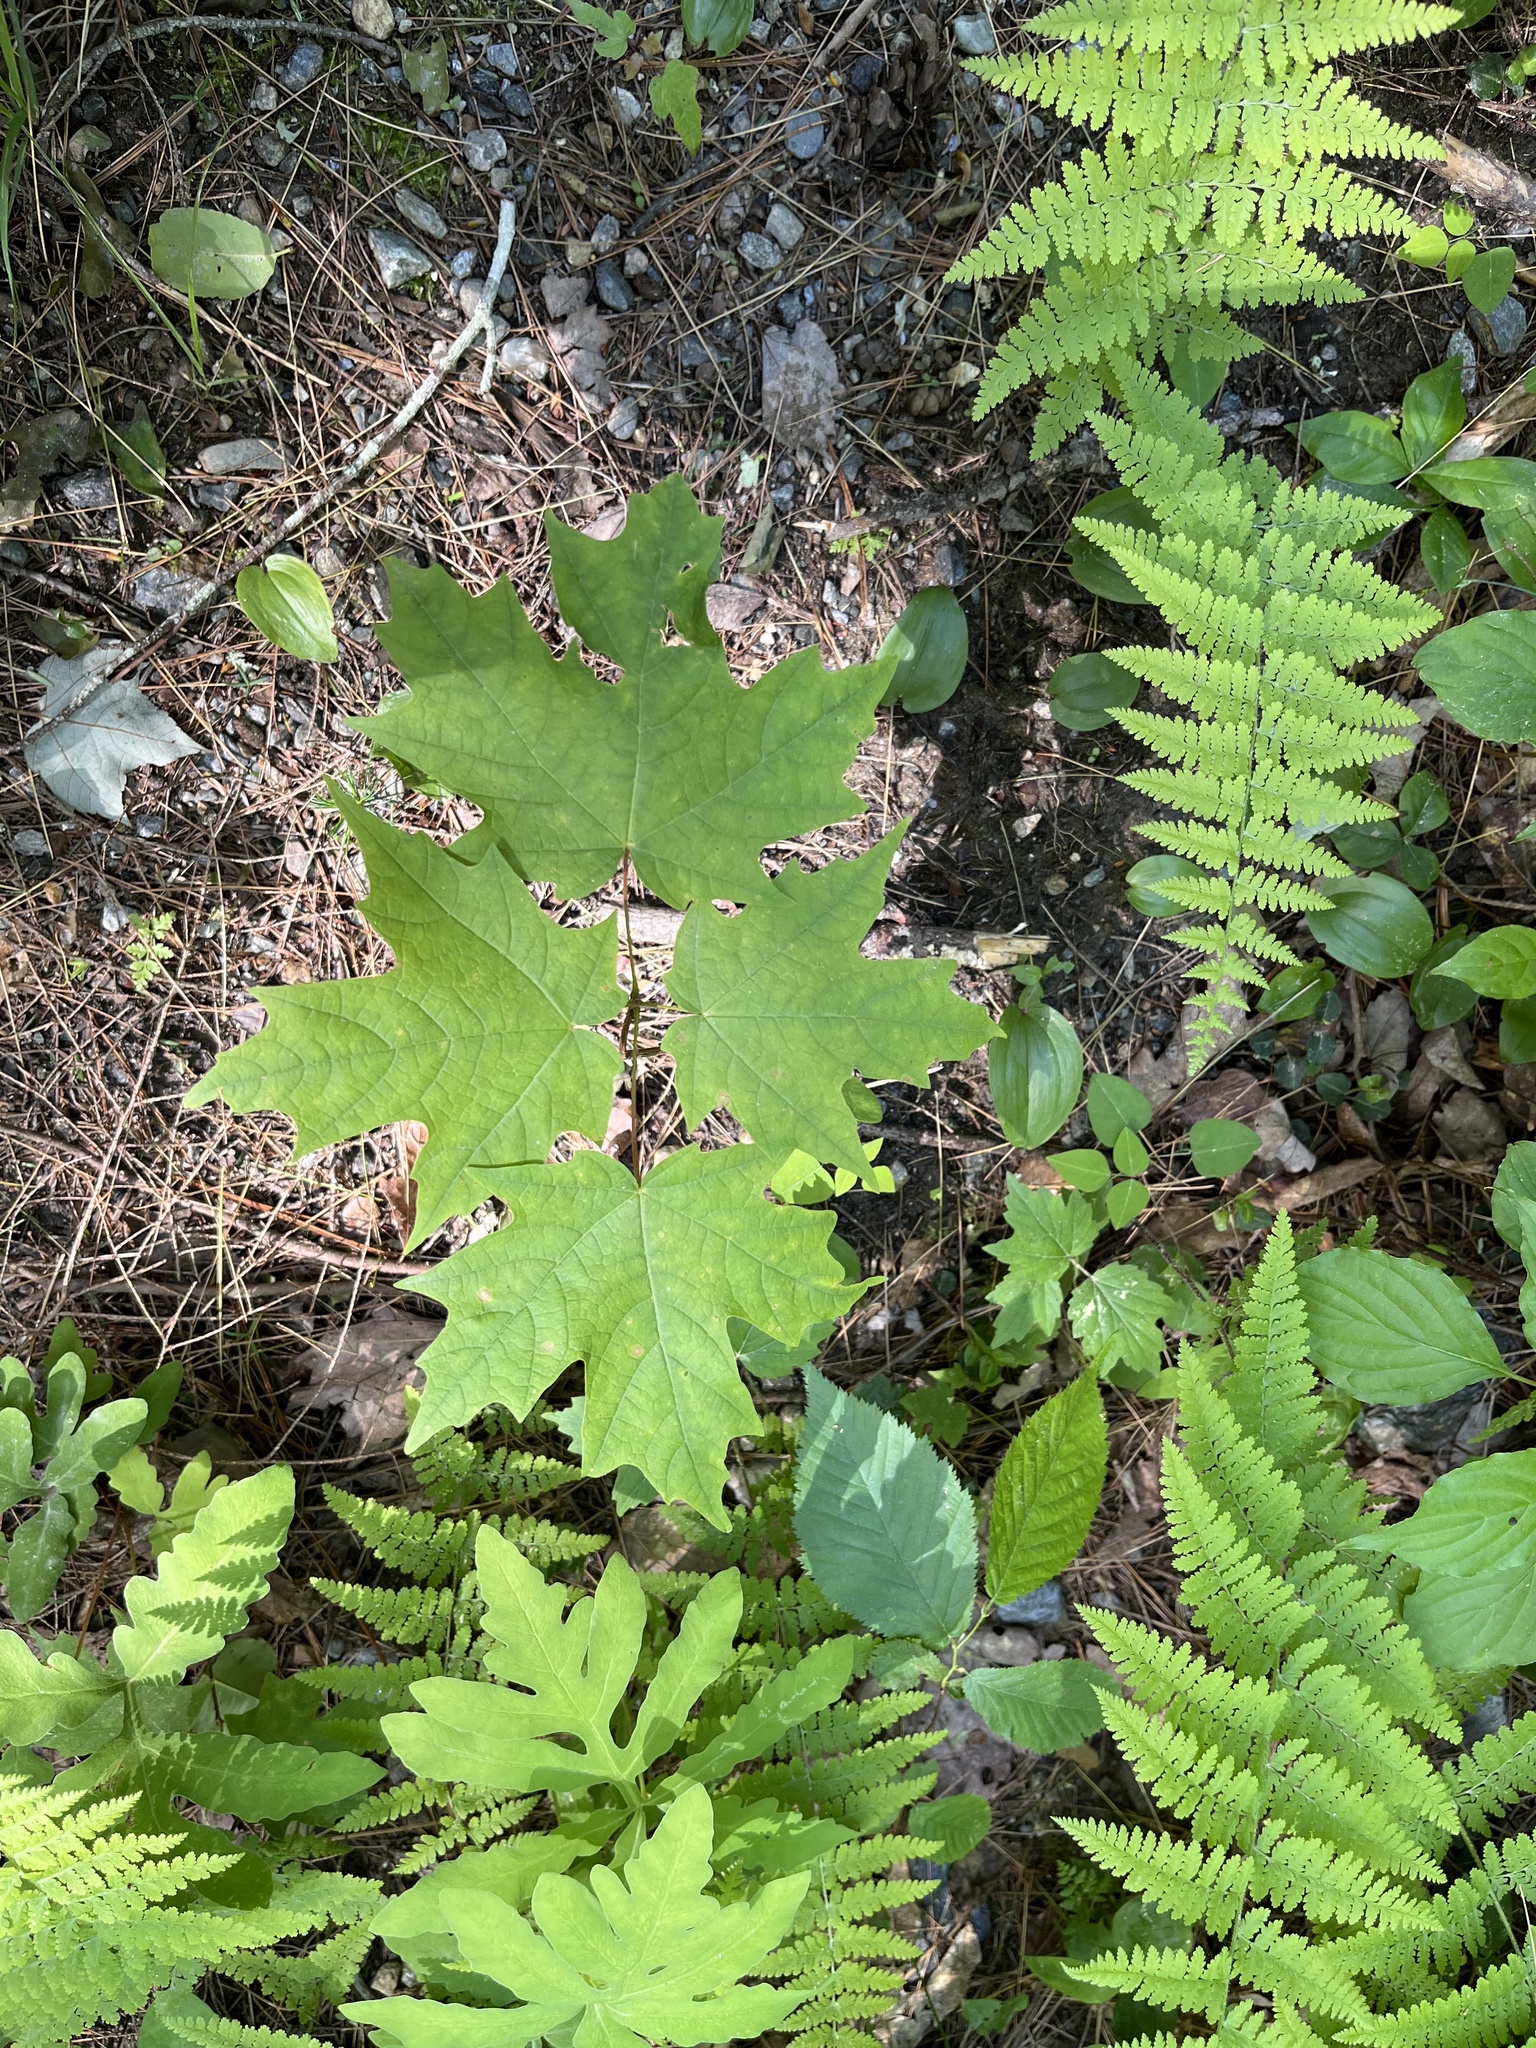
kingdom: Plantae
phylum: Tracheophyta
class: Magnoliopsida
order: Sapindales
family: Sapindaceae
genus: Acer
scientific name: Acer saccharum
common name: Sugar maple
